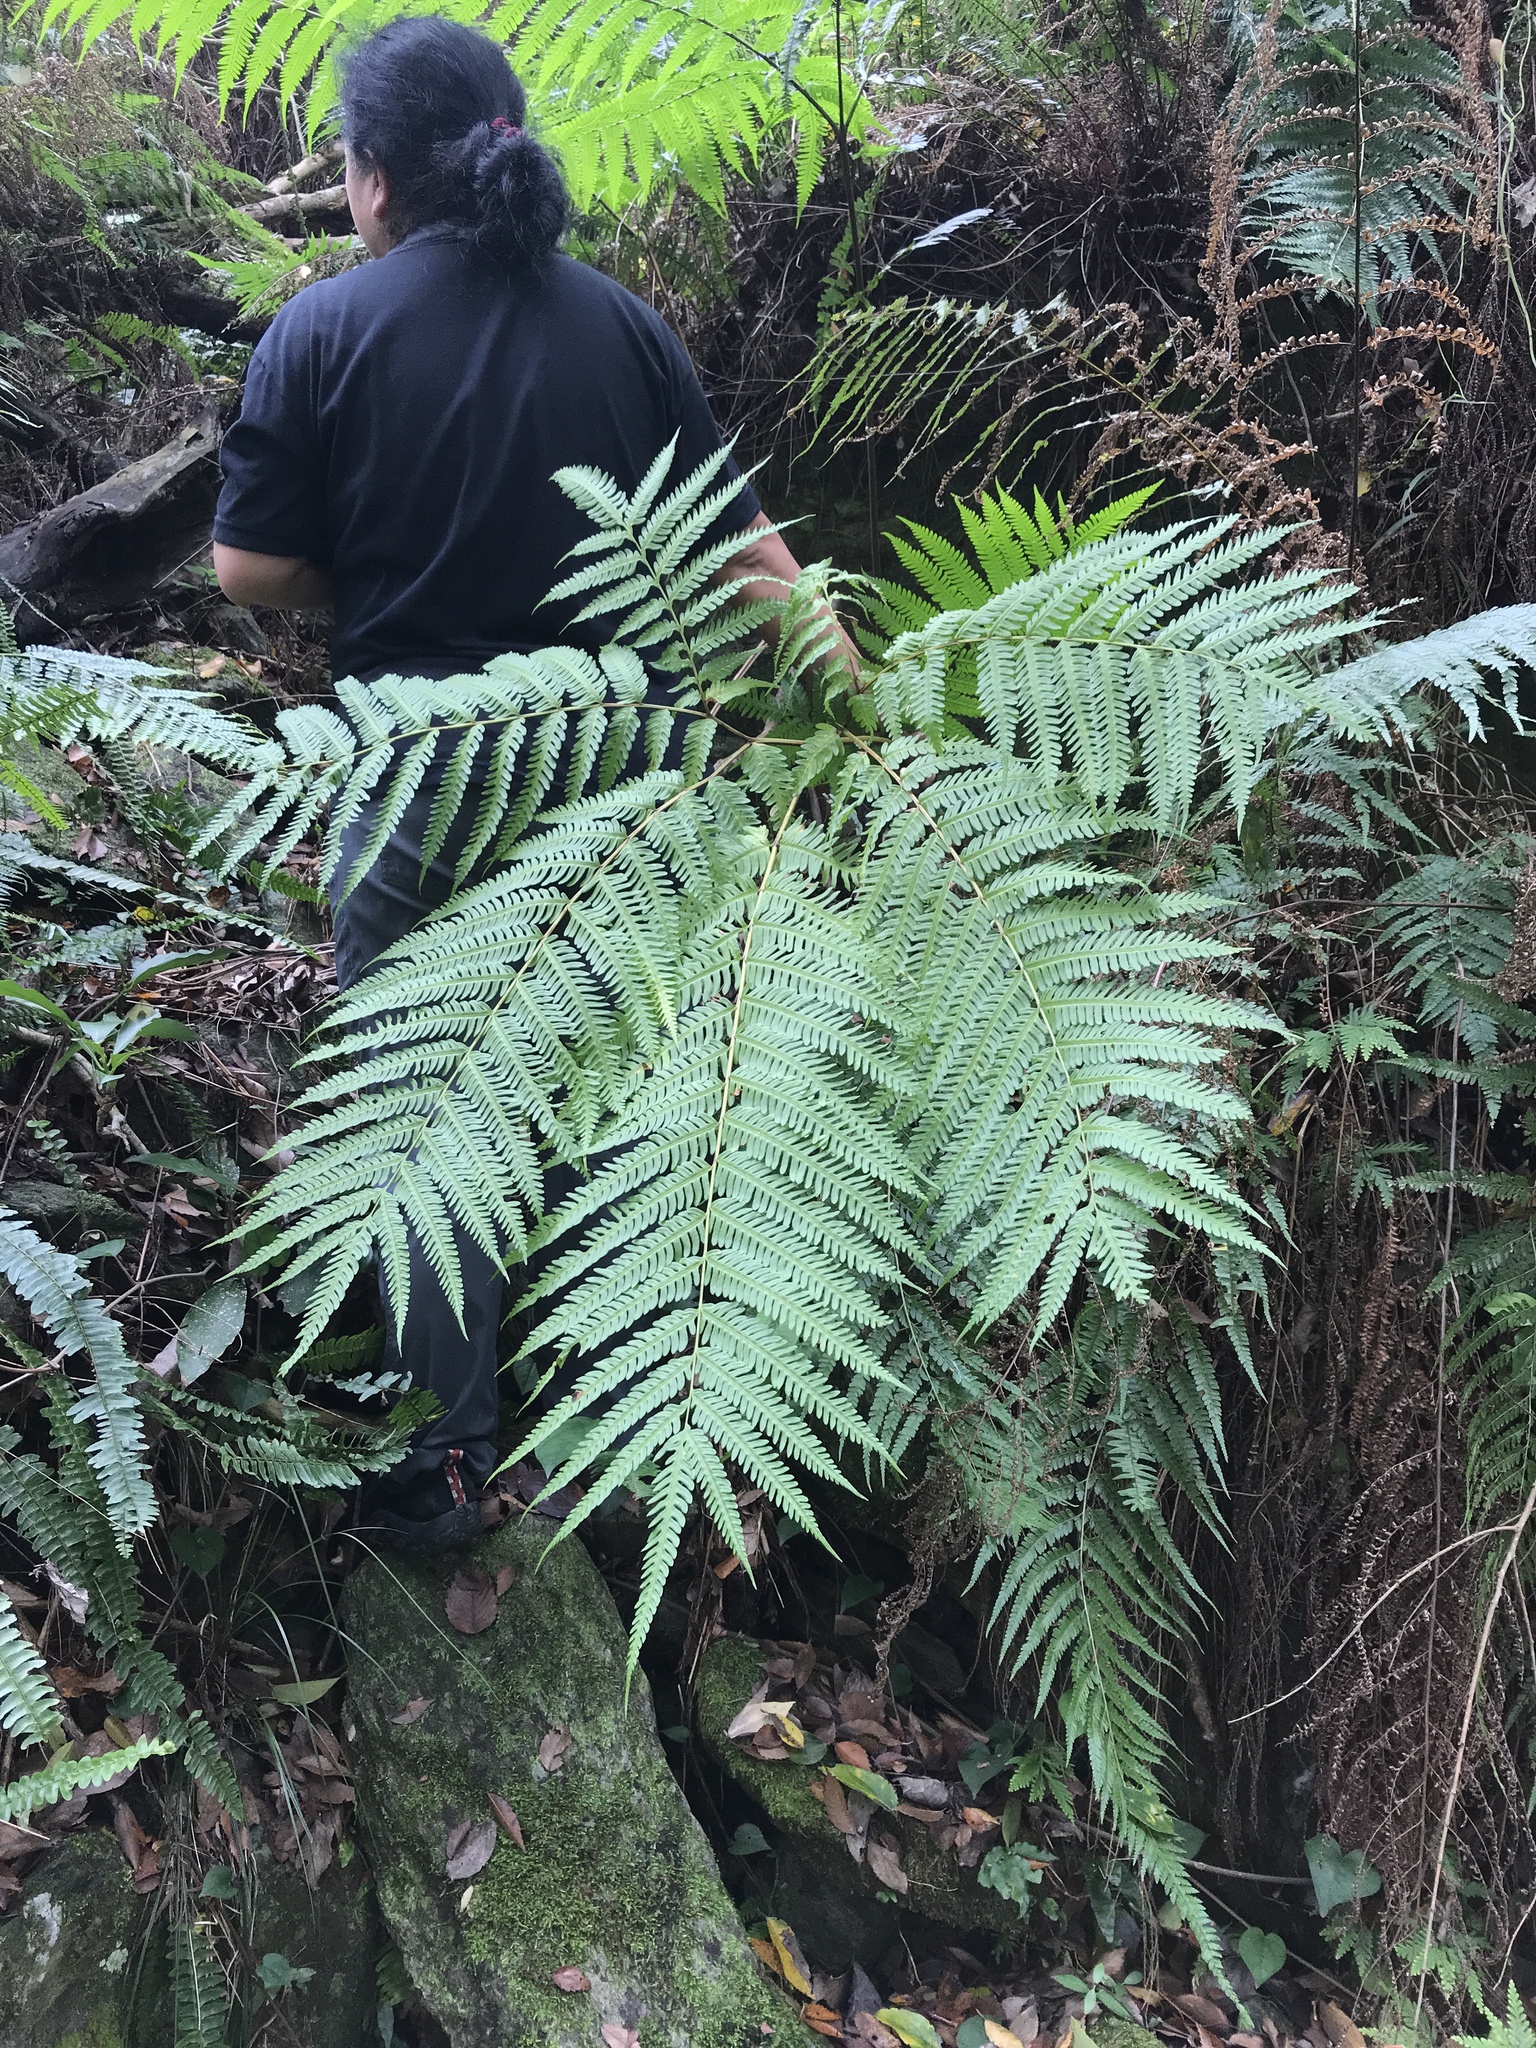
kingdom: Plantae
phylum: Tracheophyta
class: Polypodiopsida
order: Polypodiales
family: Pteridaceae
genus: Pteris
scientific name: Pteris wallichiana
